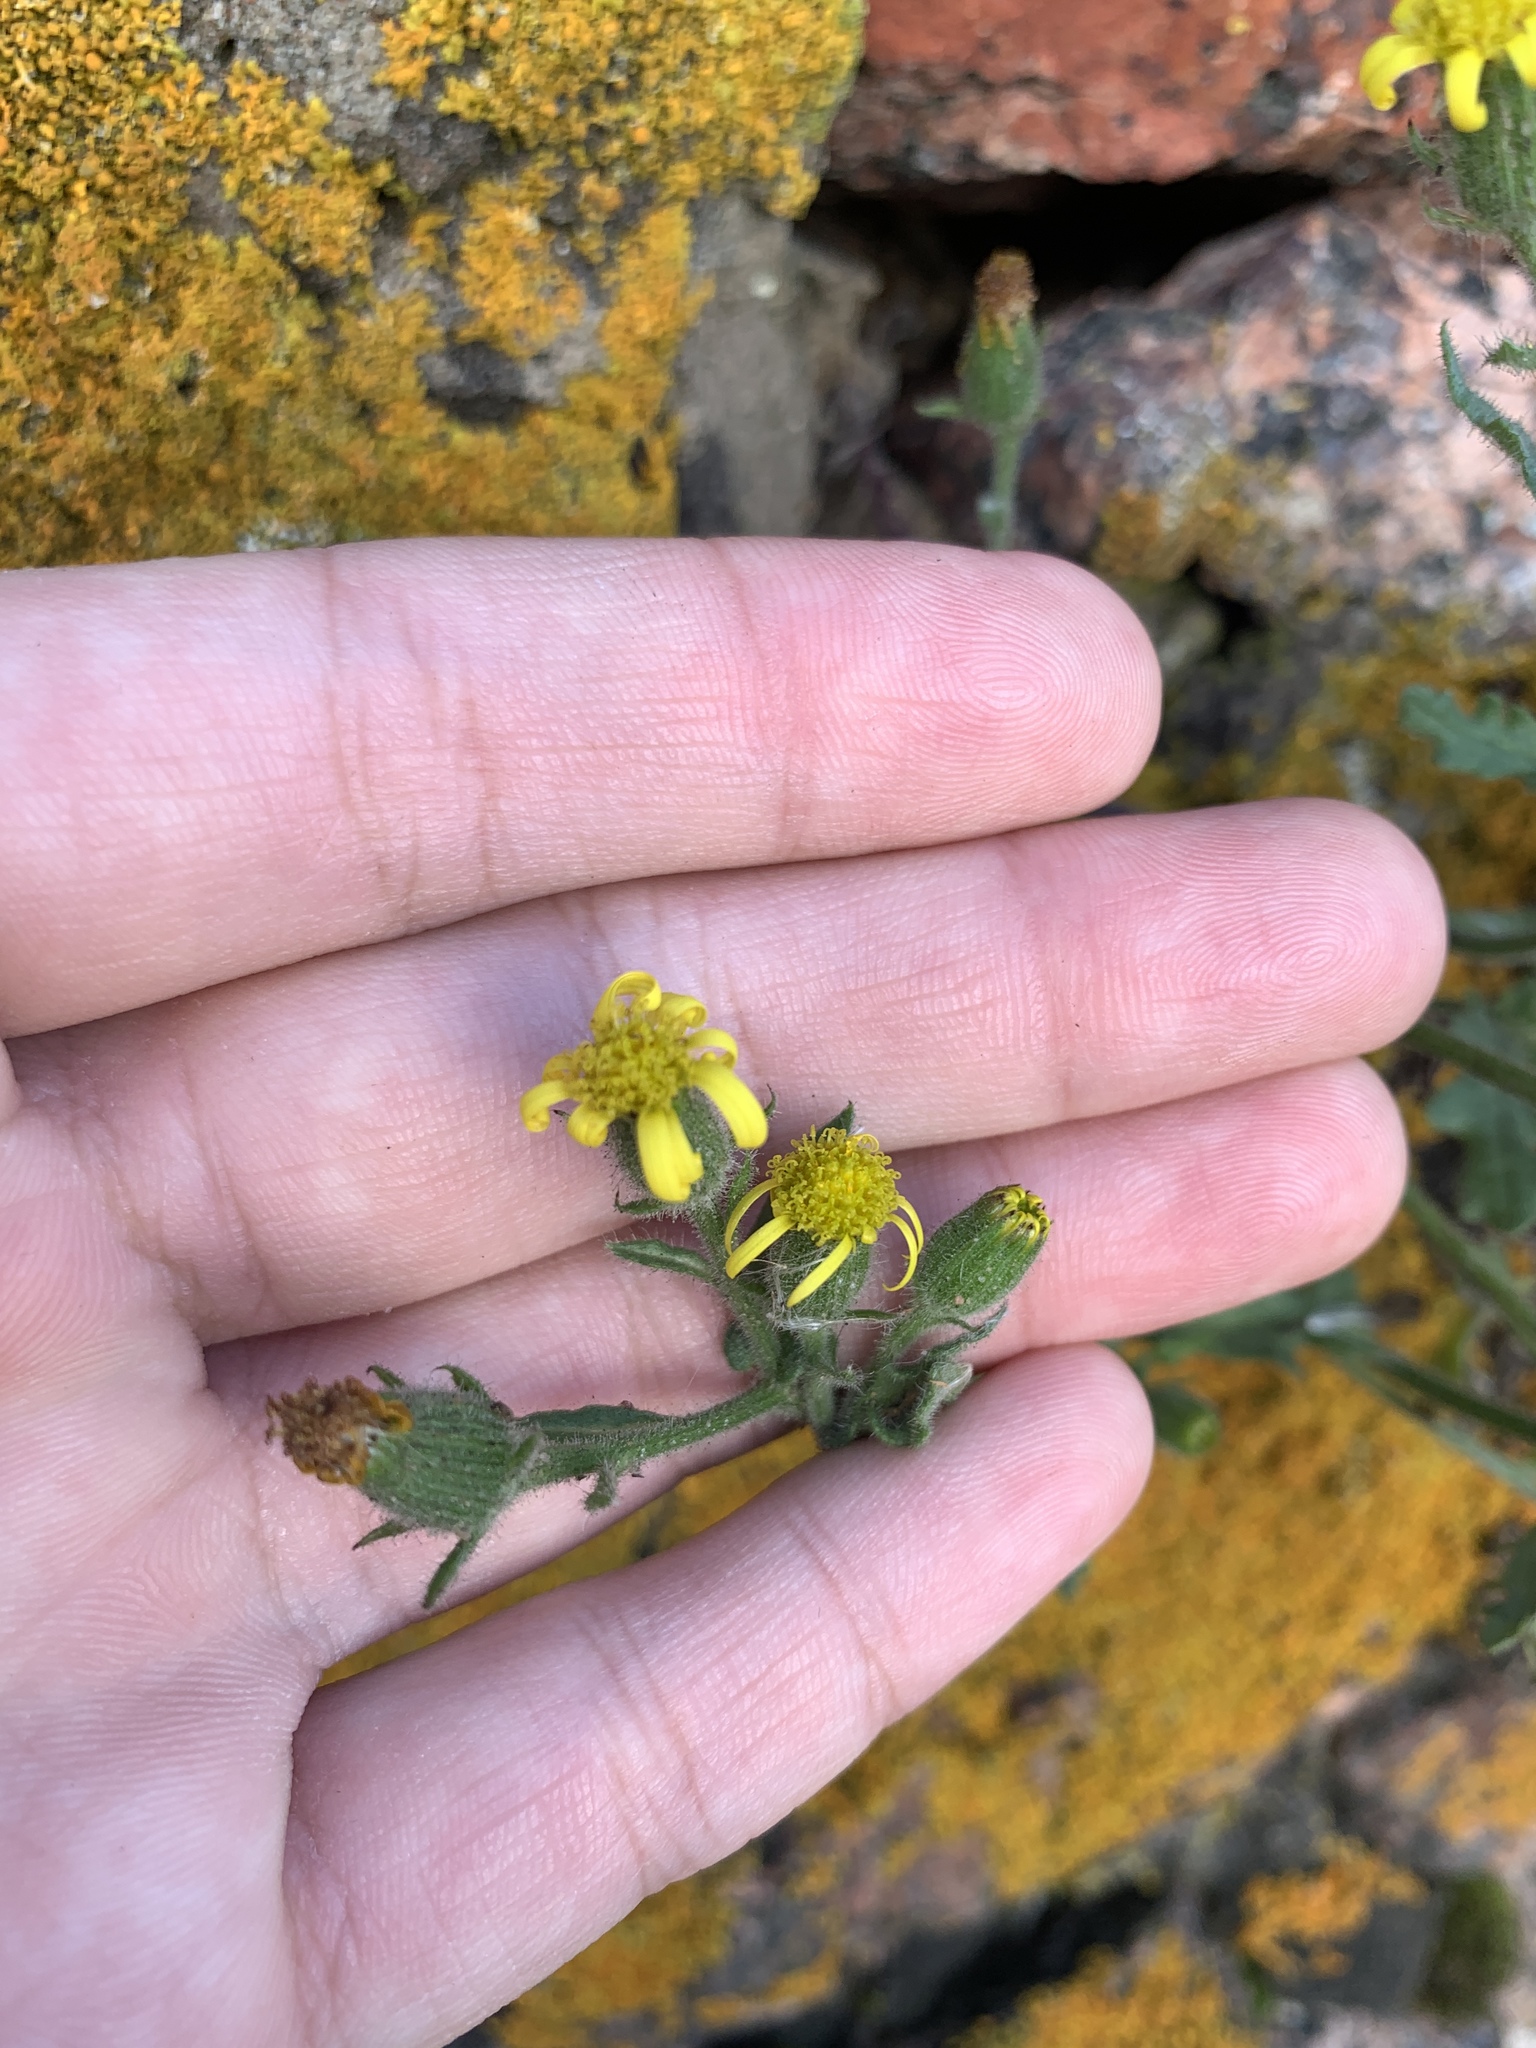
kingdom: Plantae
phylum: Tracheophyta
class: Magnoliopsida
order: Asterales
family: Asteraceae
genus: Senecio
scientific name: Senecio viscosus
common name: Sticky groundsel
